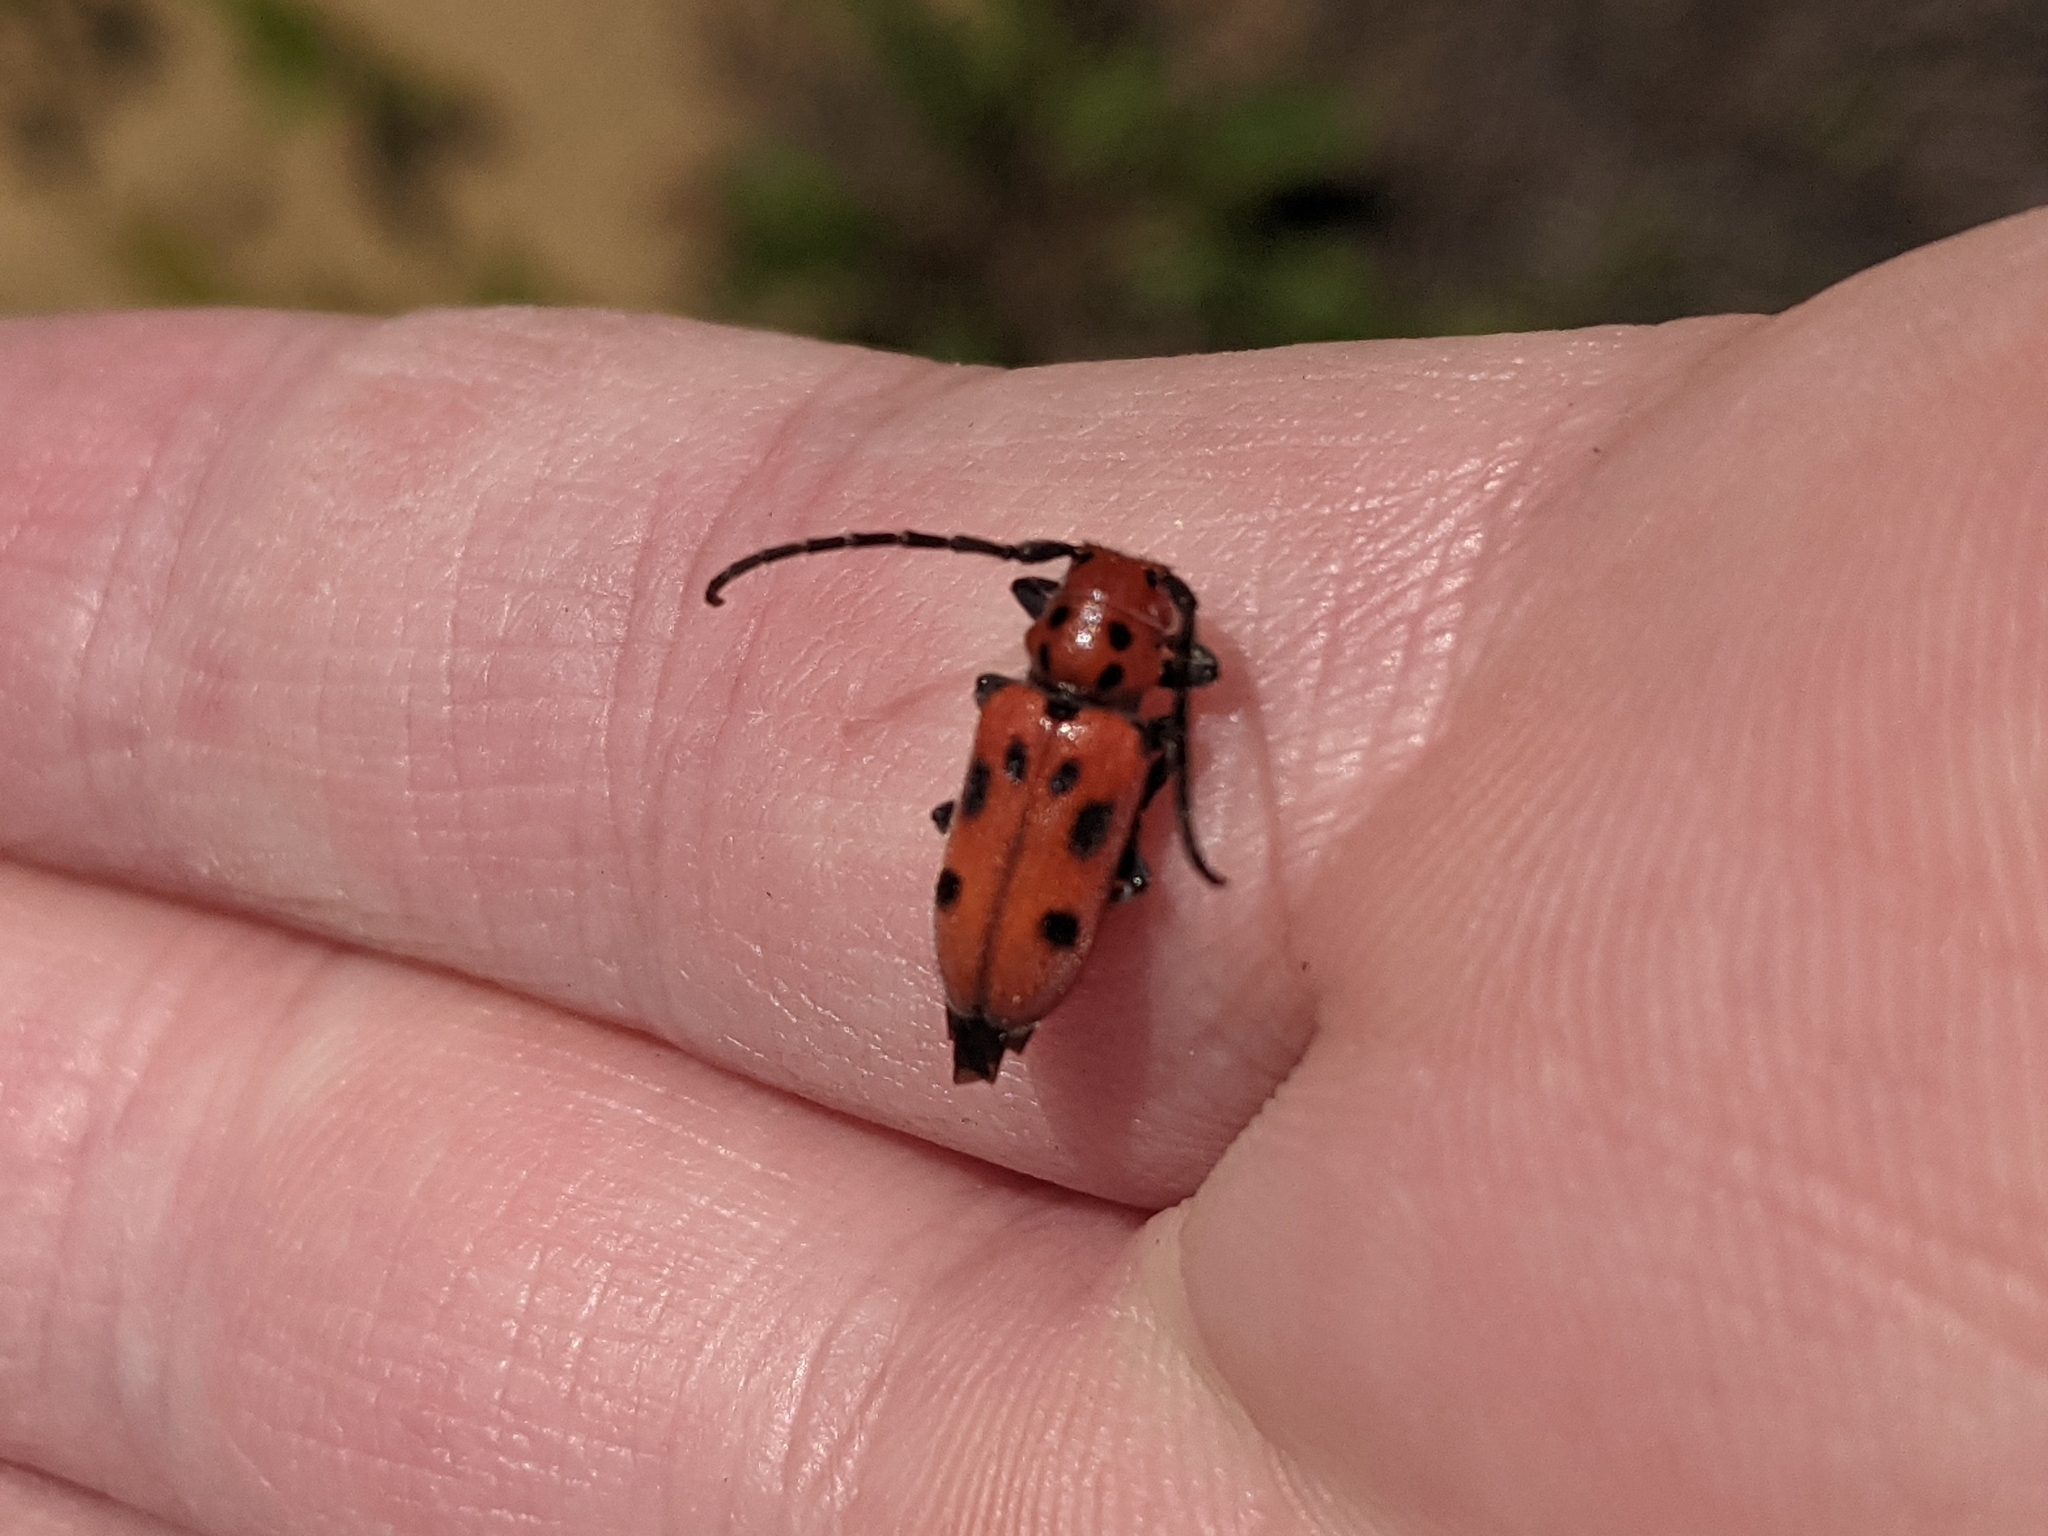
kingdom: Animalia
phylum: Arthropoda
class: Insecta
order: Coleoptera
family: Cerambycidae
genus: Tetraopes
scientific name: Tetraopes tetrophthalmus
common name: Red milkweed beetle
